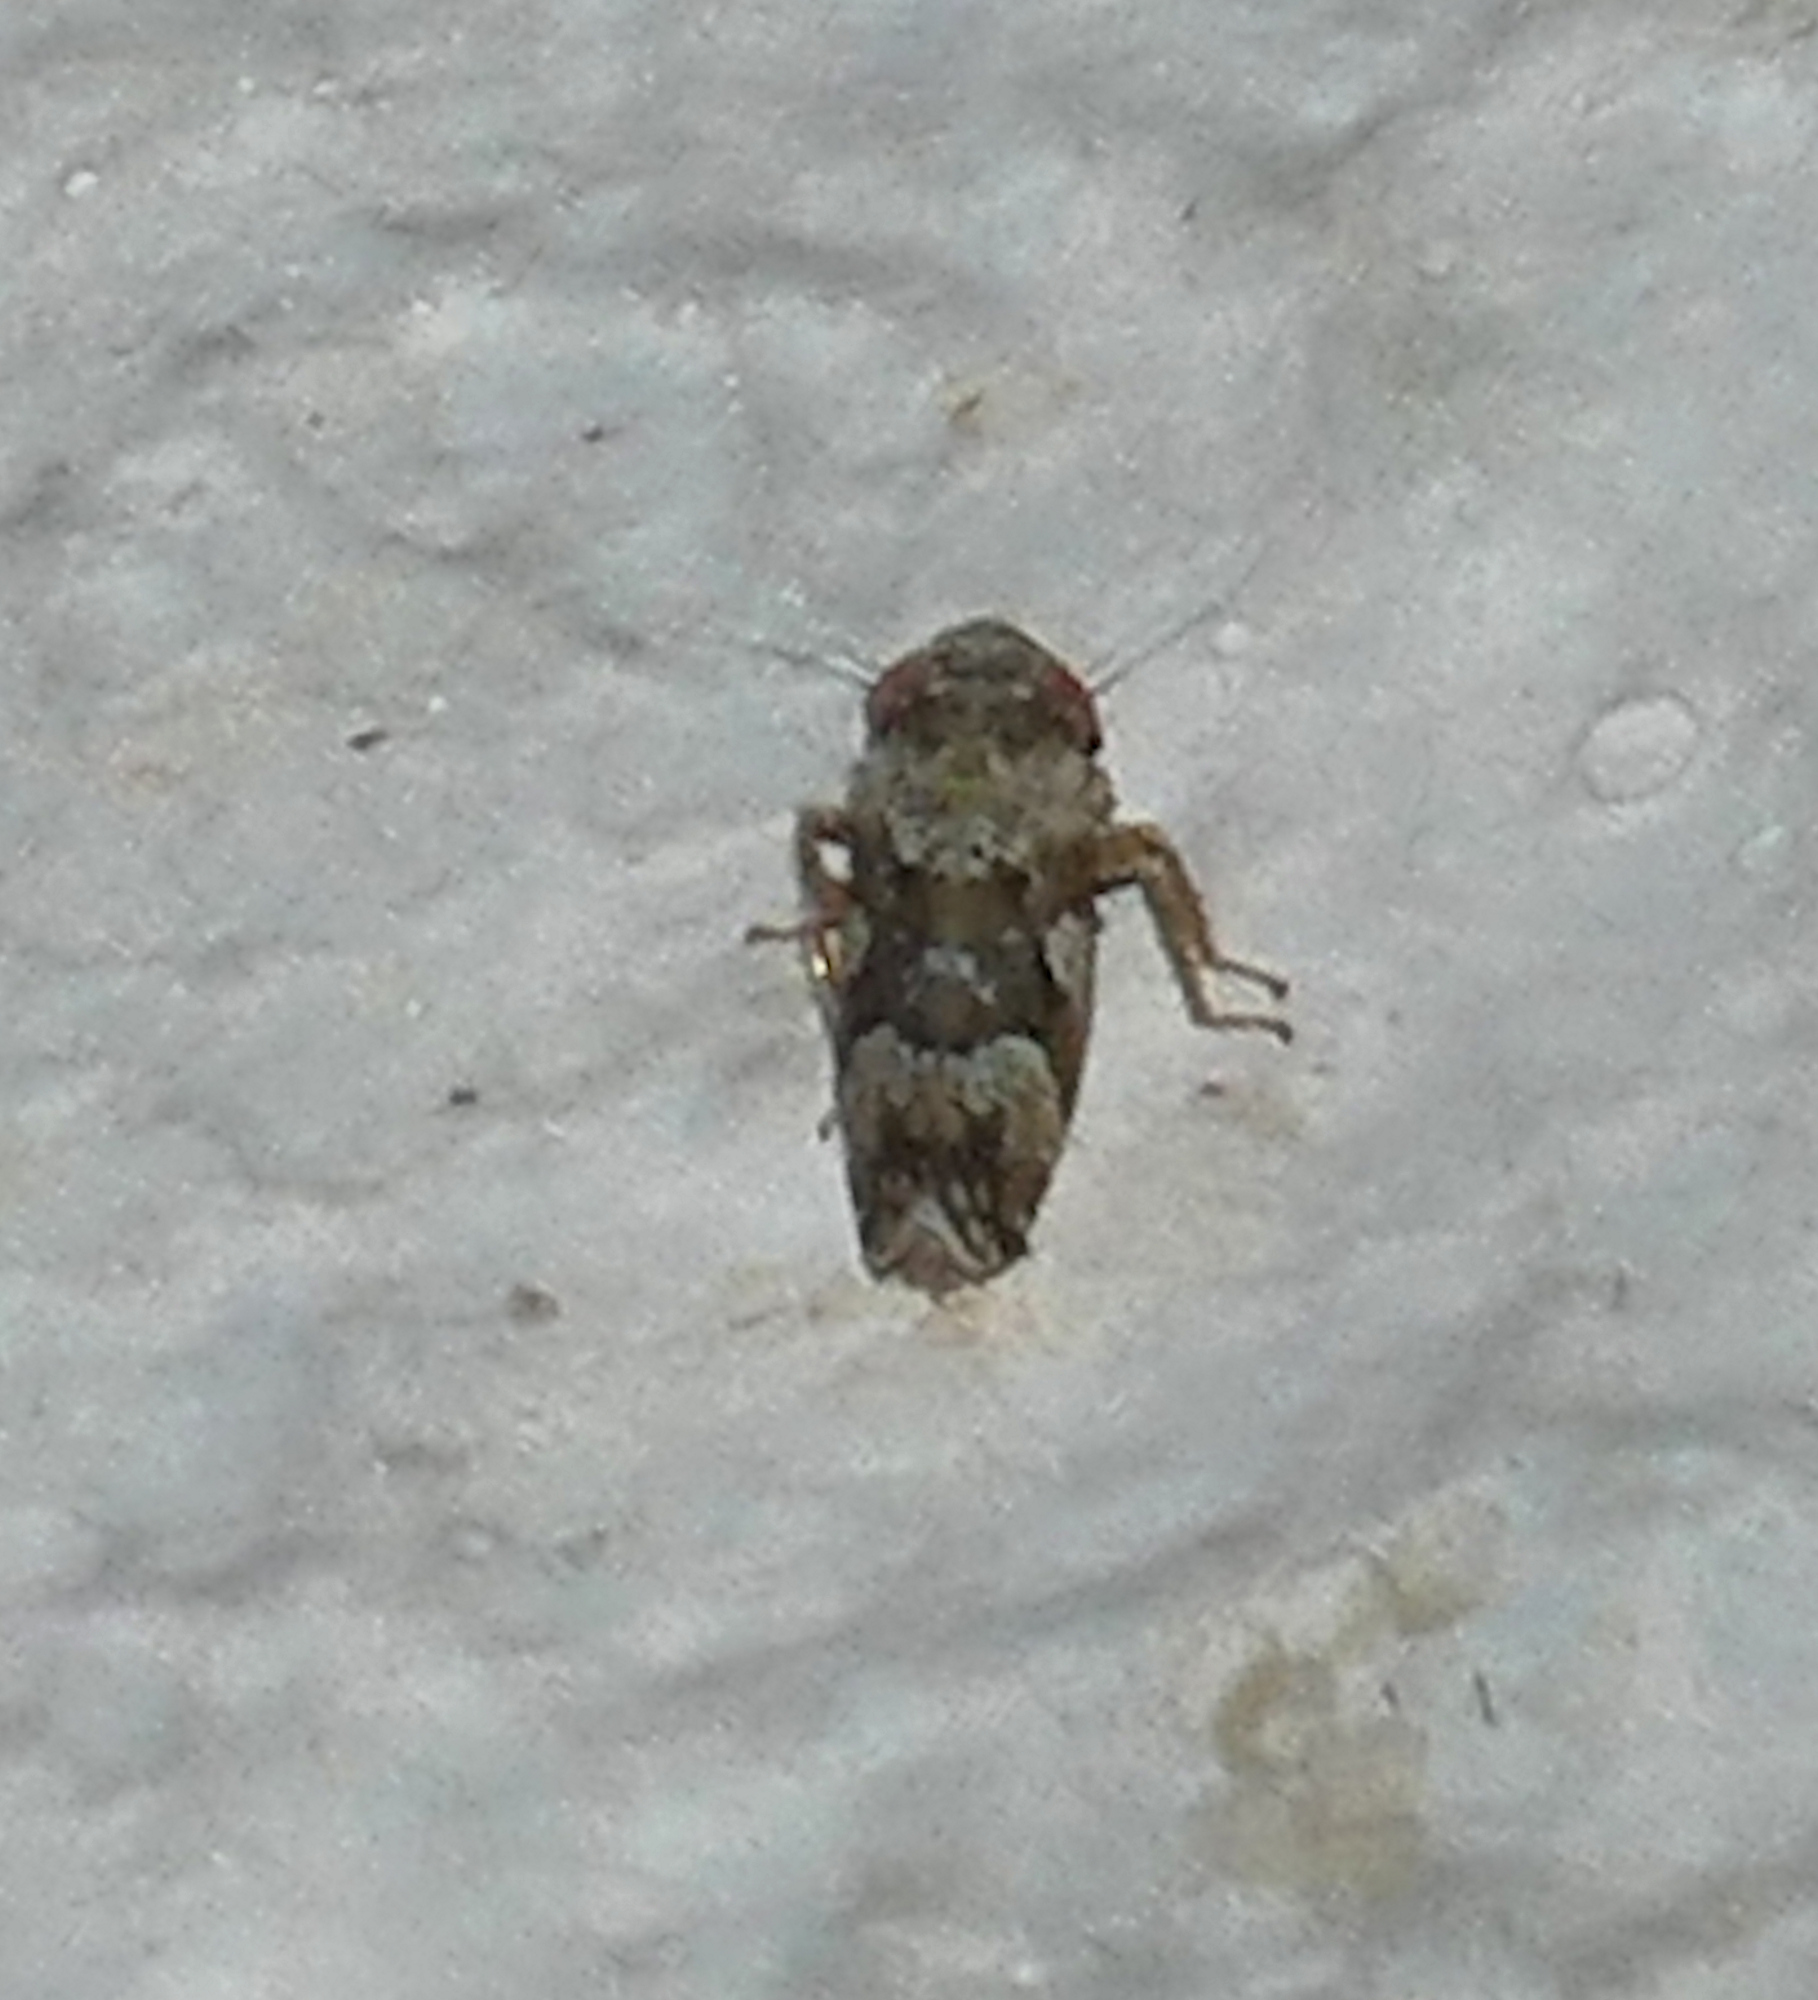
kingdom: Animalia
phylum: Arthropoda
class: Insecta
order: Hemiptera
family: Cicadellidae
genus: Sanctanus
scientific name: Sanctanus limicolus
